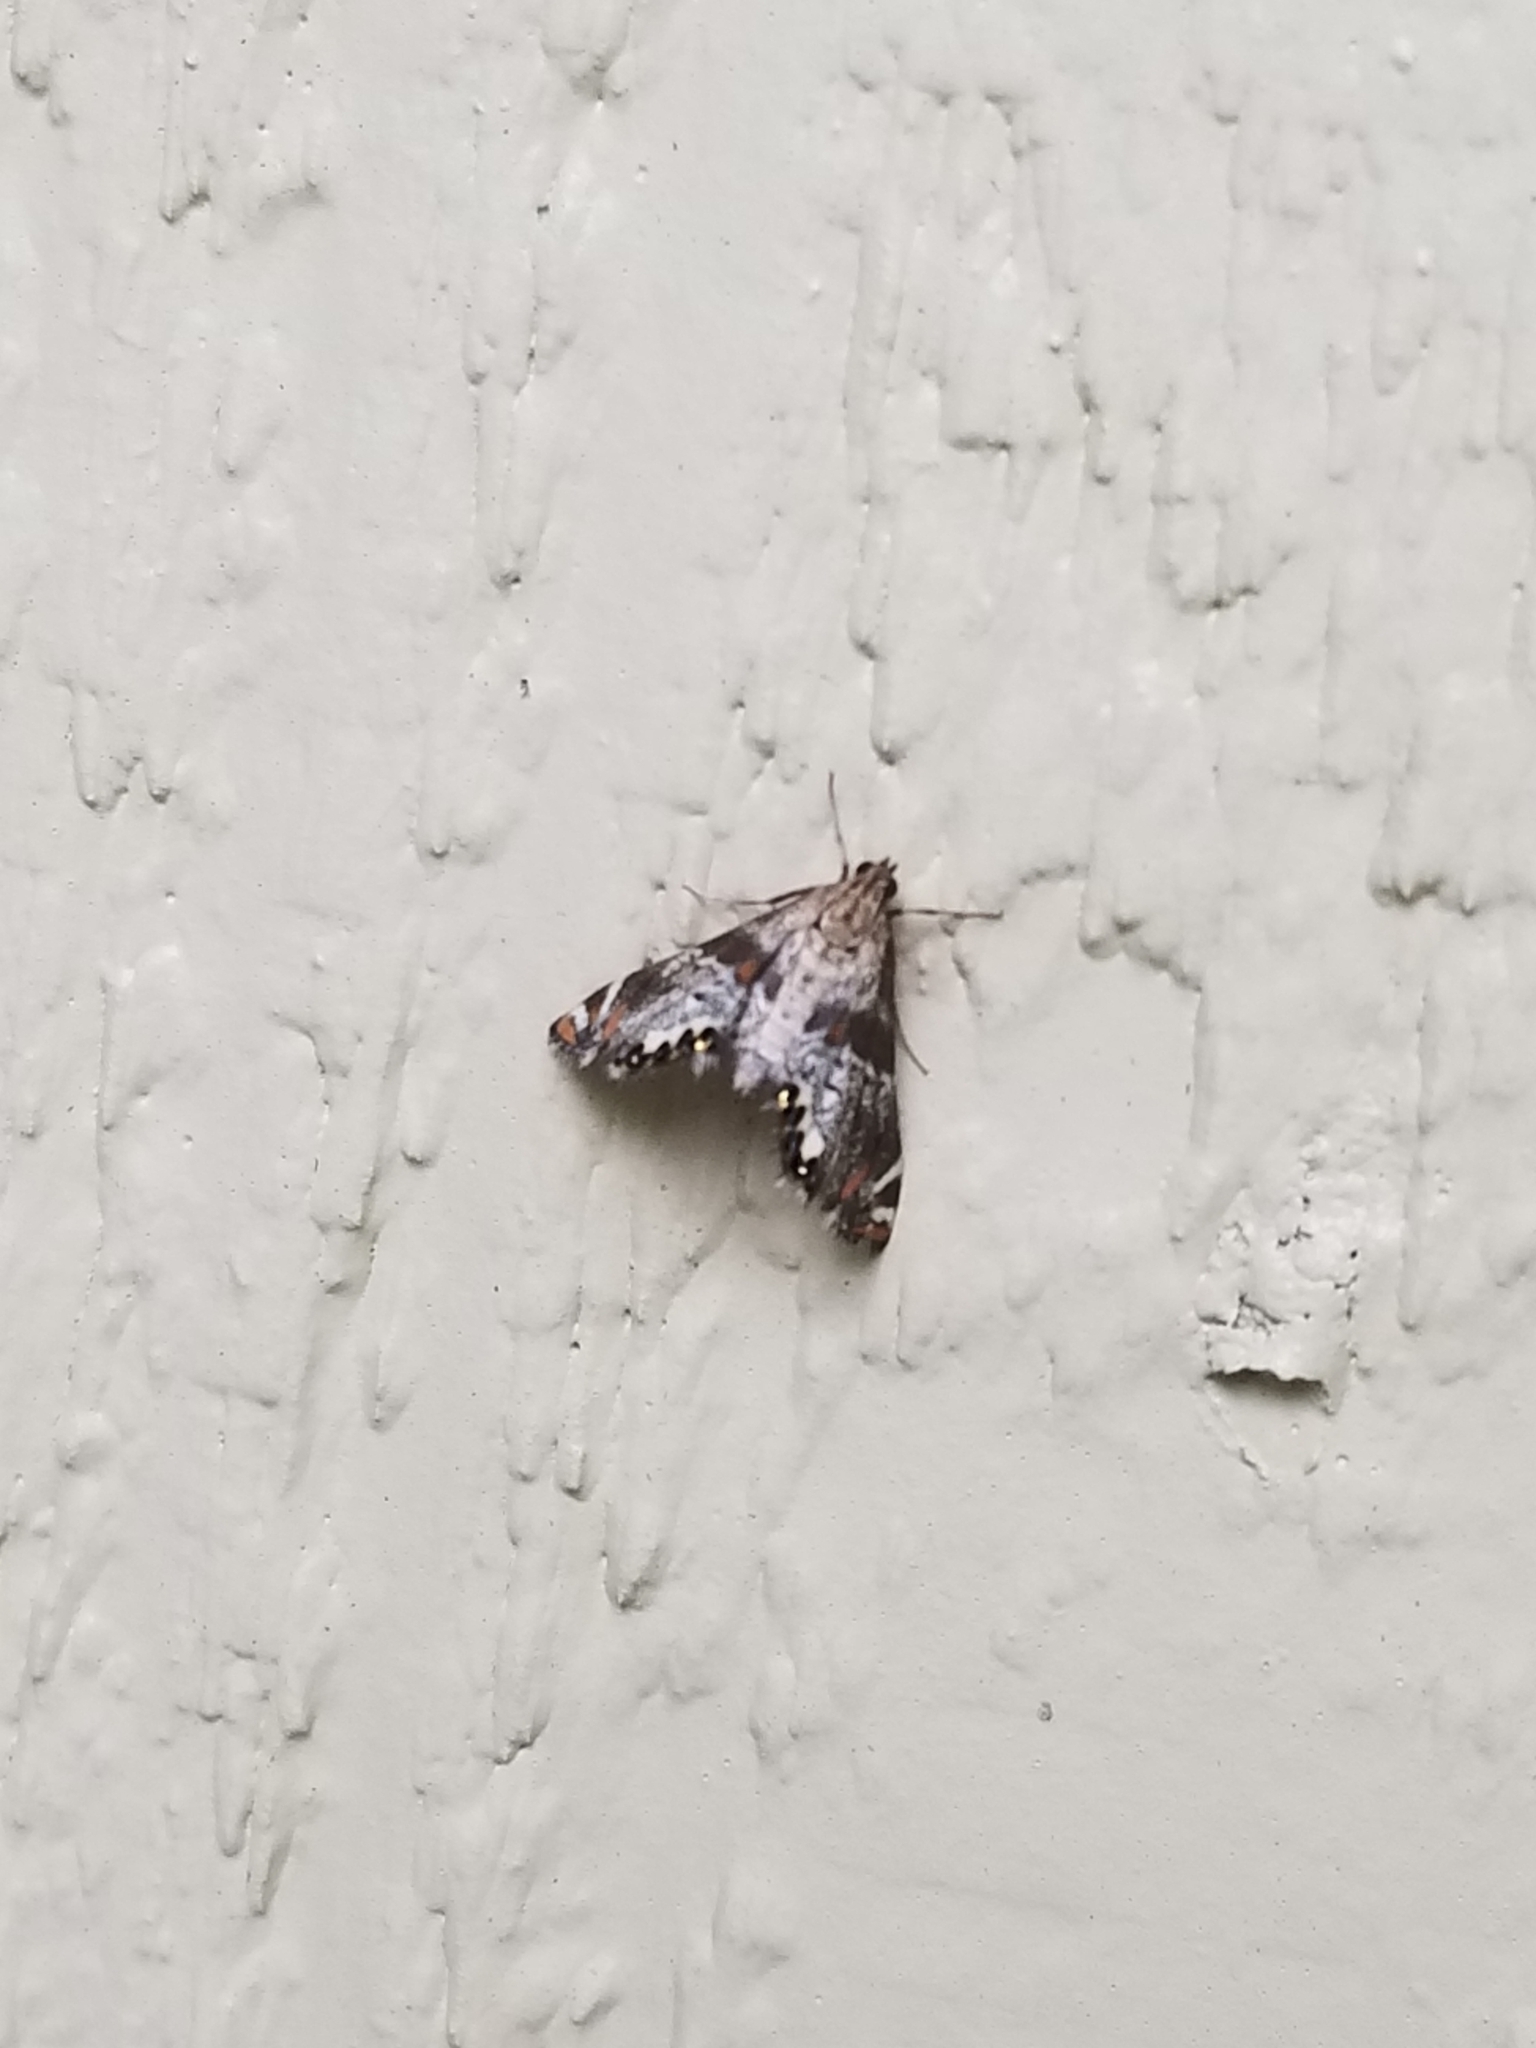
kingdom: Animalia
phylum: Arthropoda
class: Insecta
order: Lepidoptera
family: Crambidae
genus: Petrophila
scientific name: Petrophila jaliscalis
